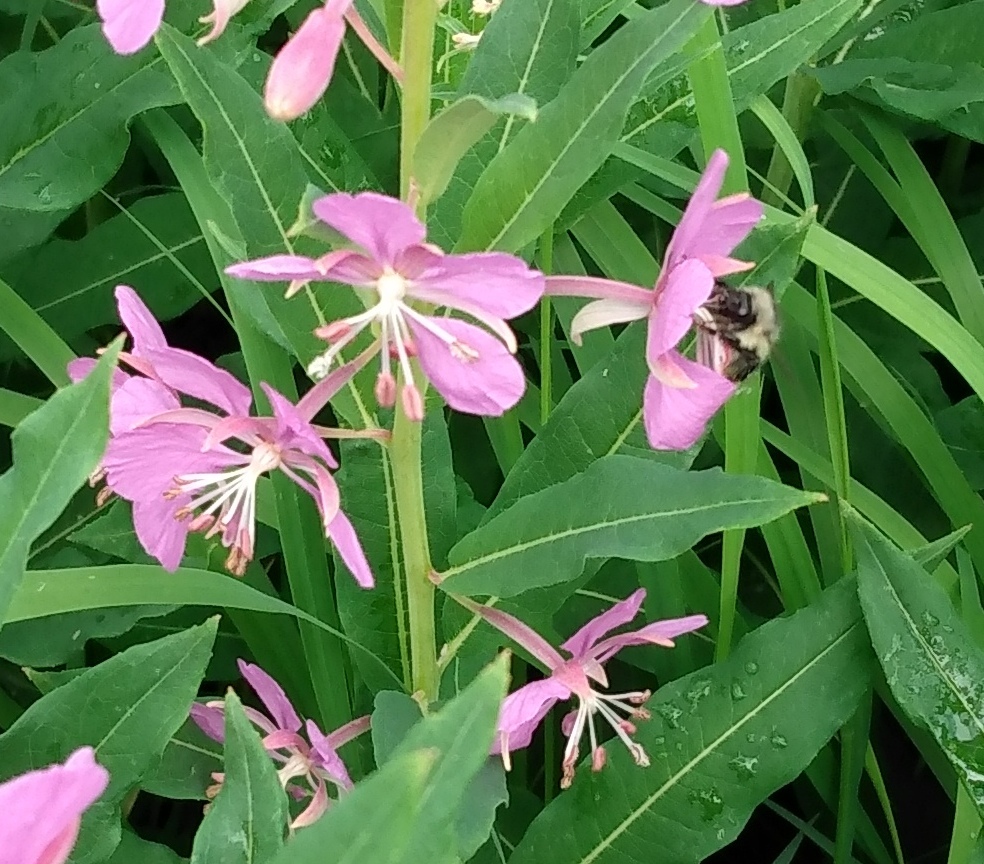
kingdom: Animalia
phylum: Arthropoda
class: Insecta
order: Hymenoptera
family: Apidae
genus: Bombus
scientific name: Bombus flavifrons
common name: Yellow head bumble bee
